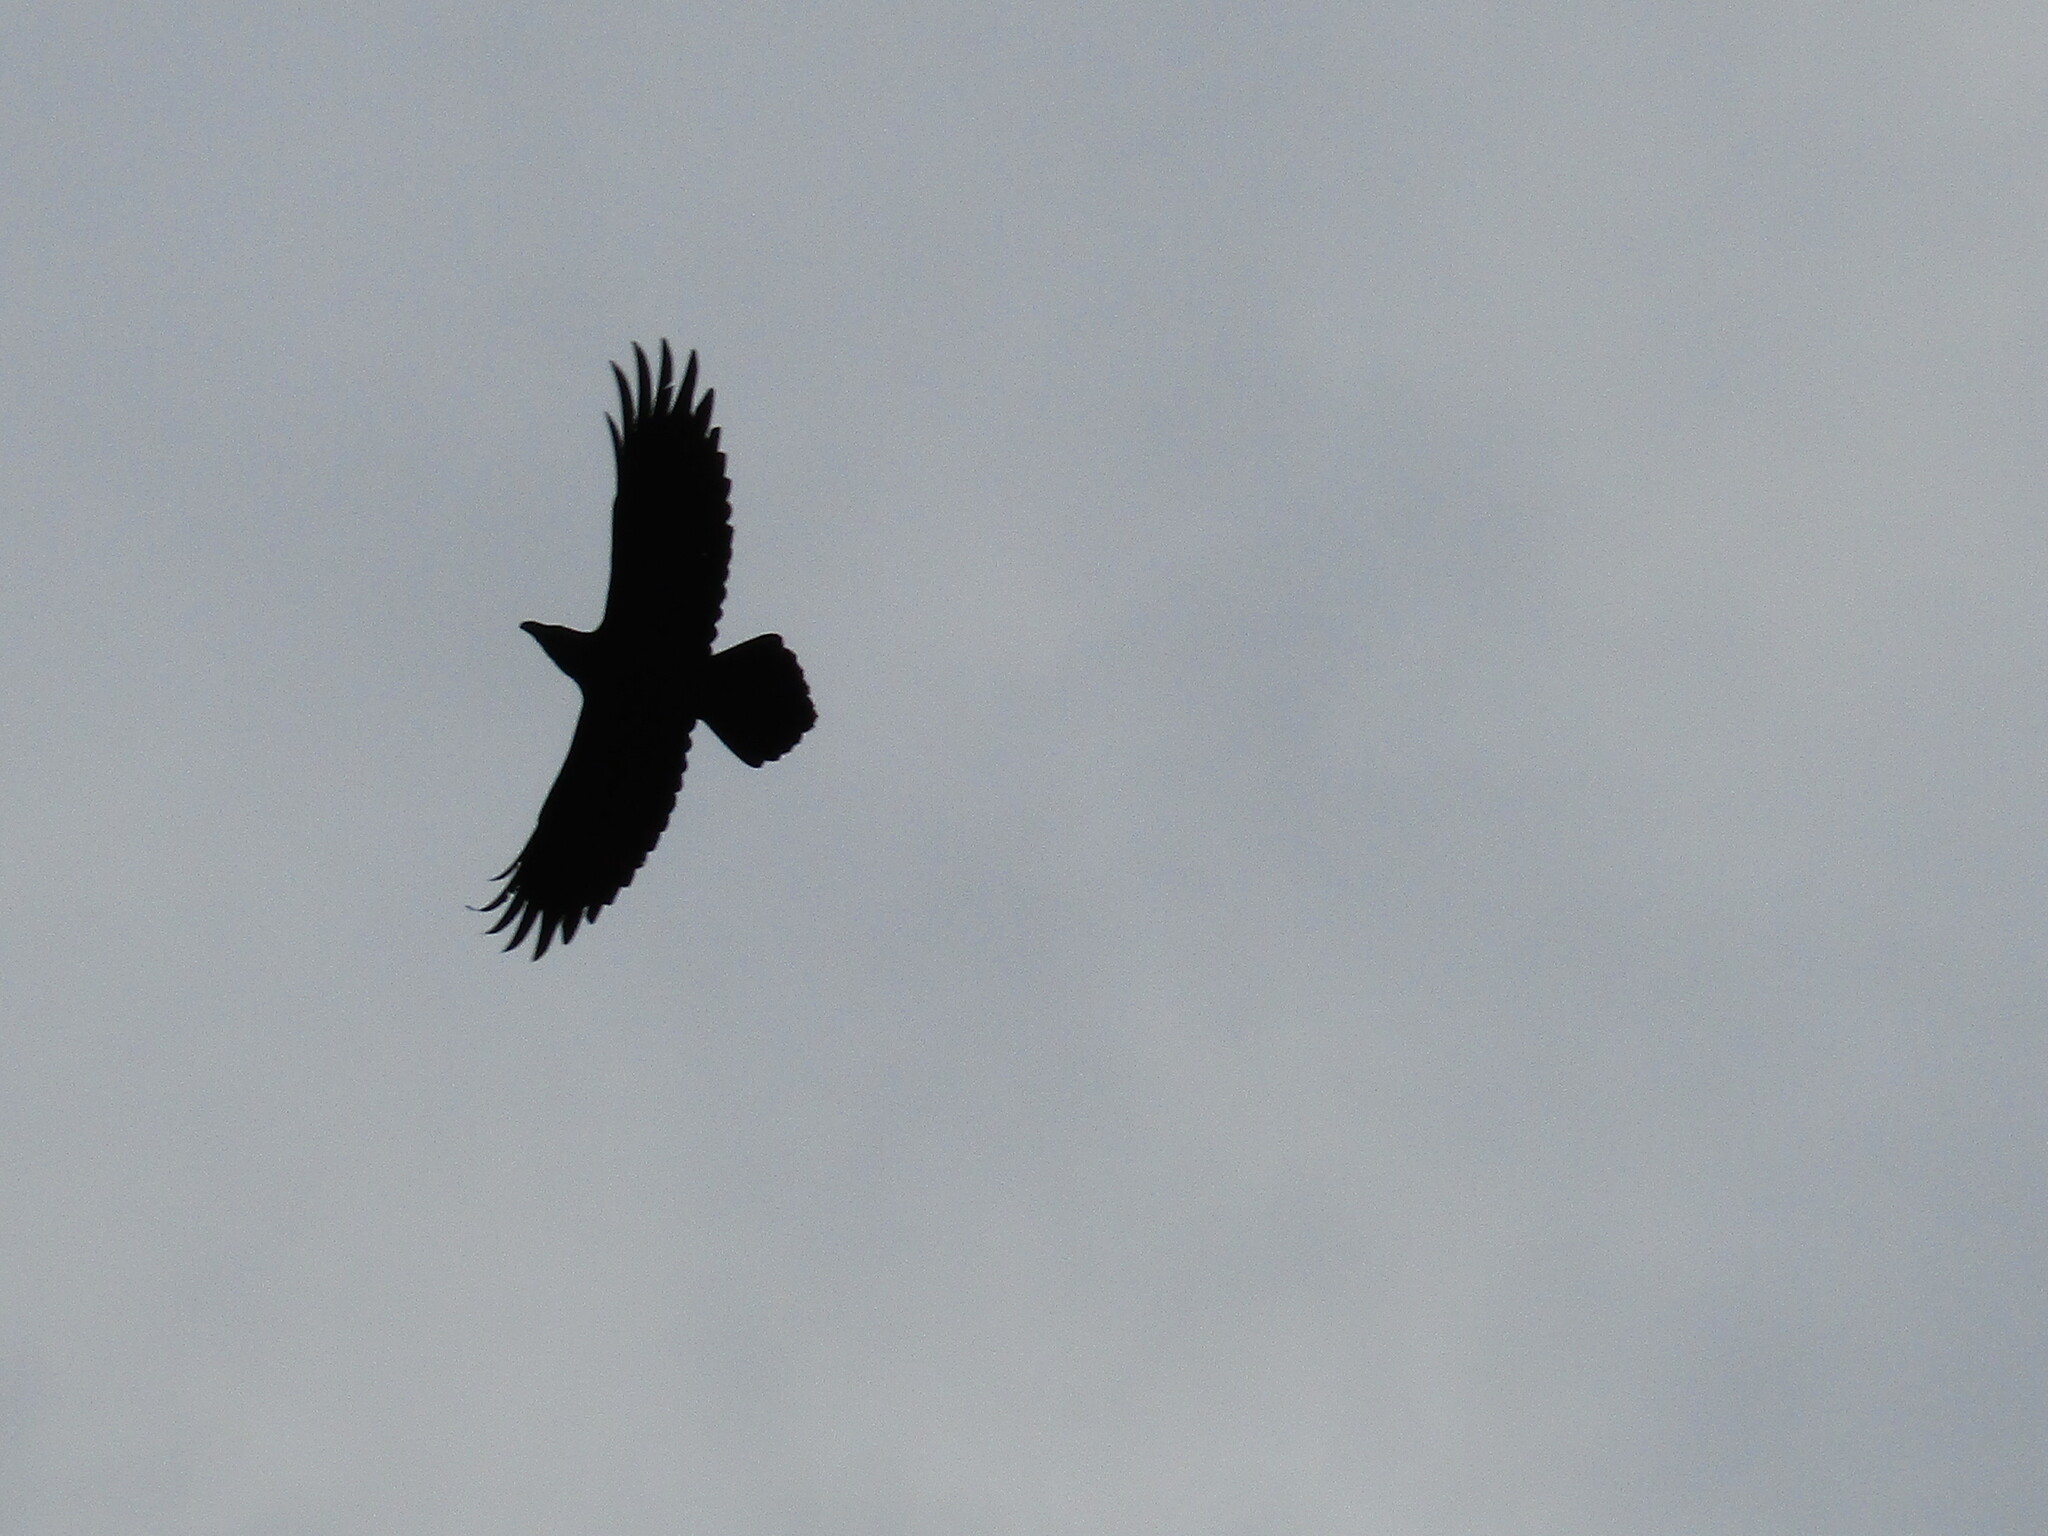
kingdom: Animalia
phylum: Chordata
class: Aves
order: Passeriformes
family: Corvidae
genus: Corvus
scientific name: Corvus corax
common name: Common raven
